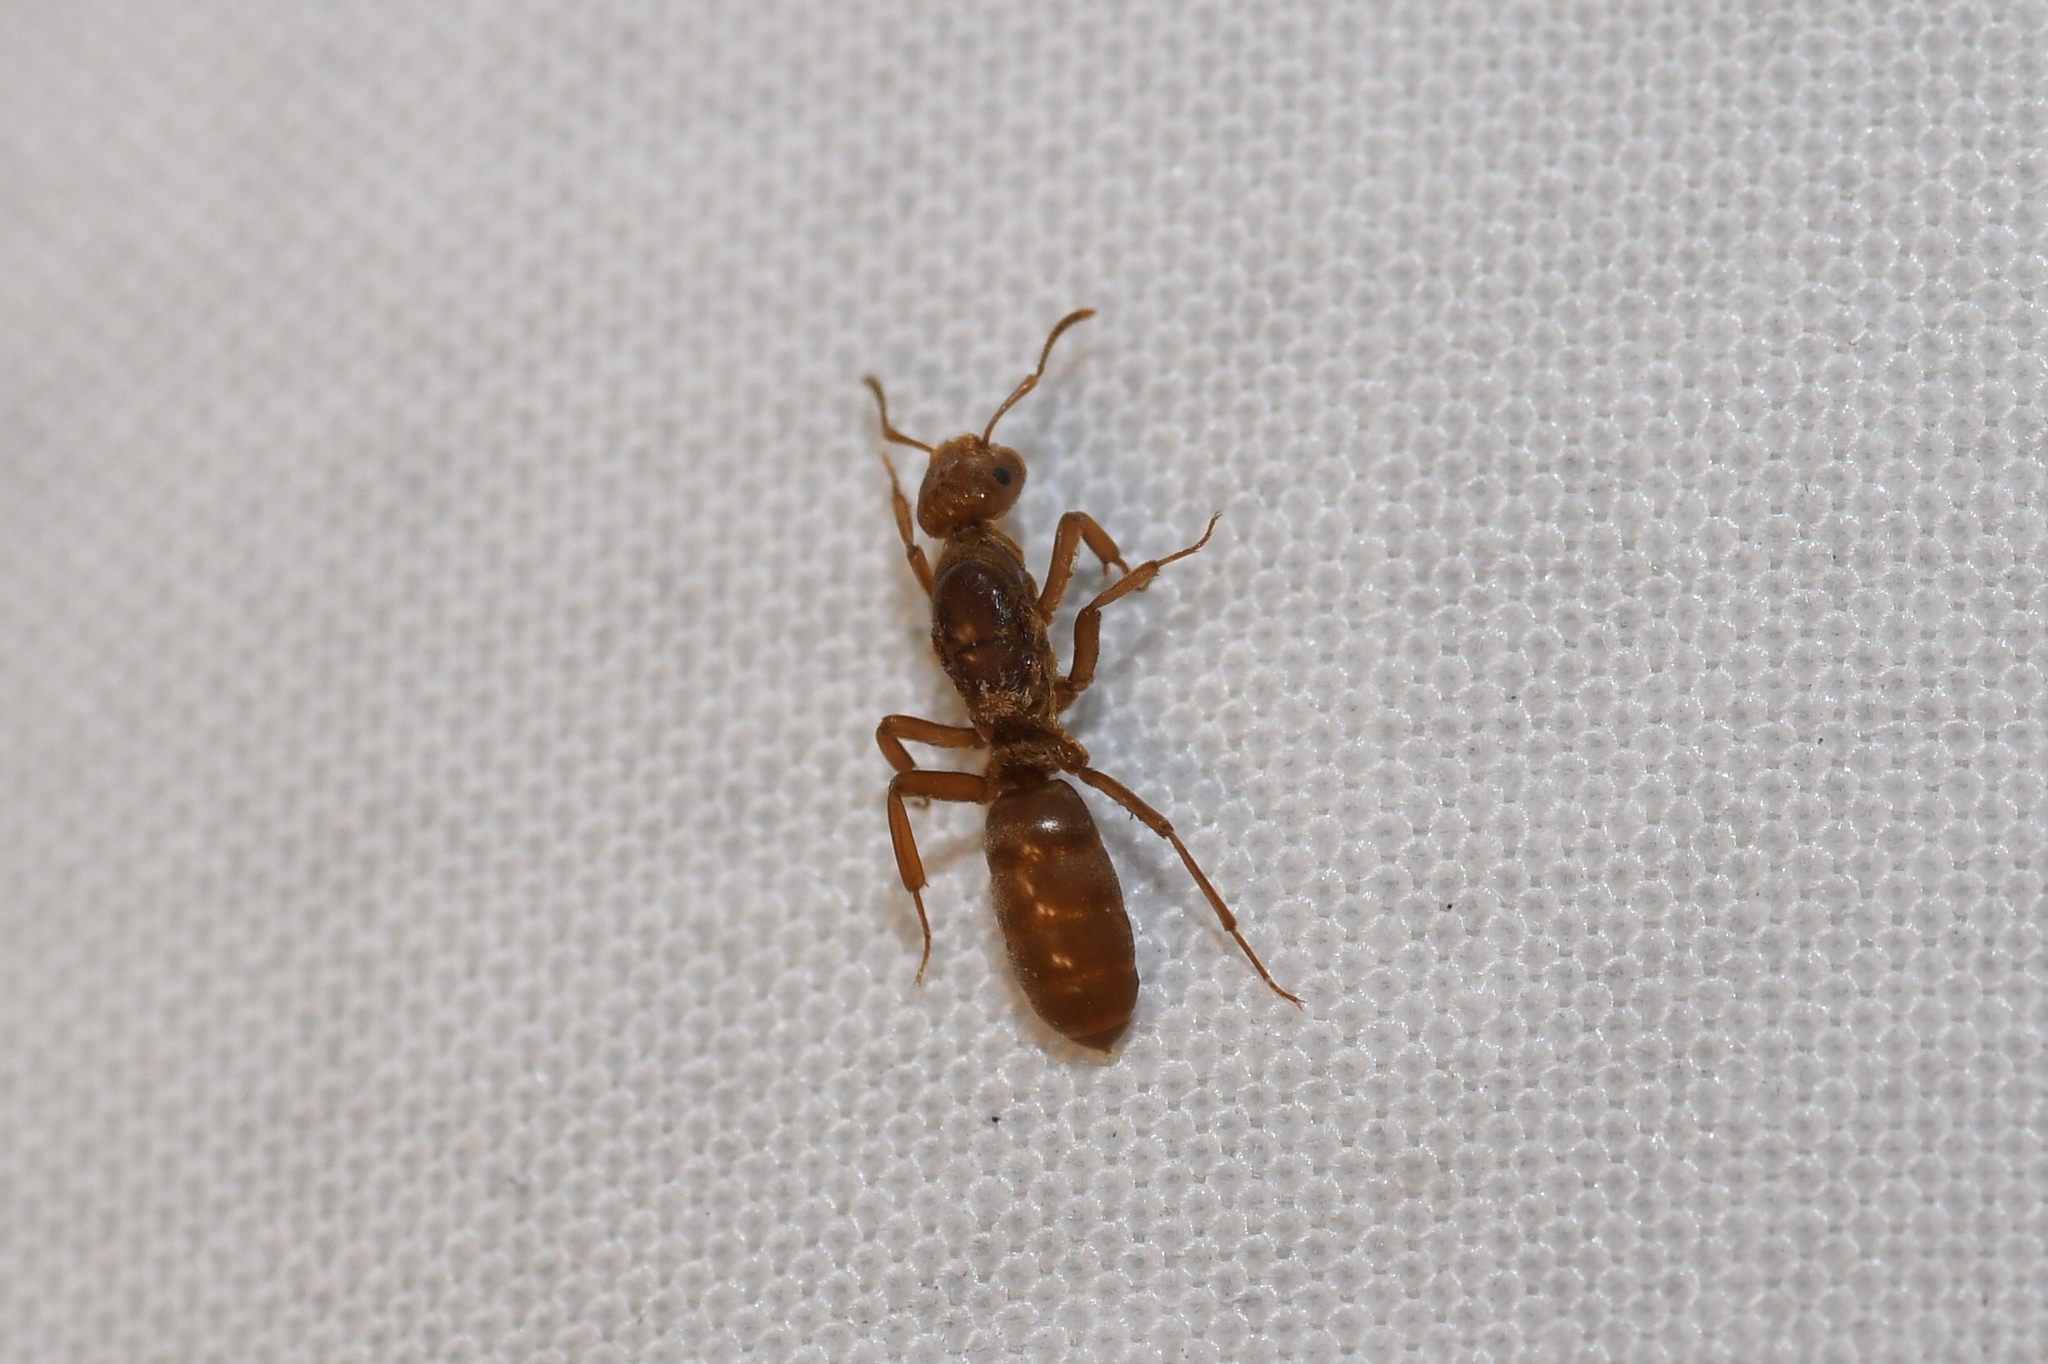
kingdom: Animalia
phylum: Arthropoda
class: Insecta
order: Hymenoptera
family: Formicidae
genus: Acanthomyops
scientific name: Acanthomyops murphyi
